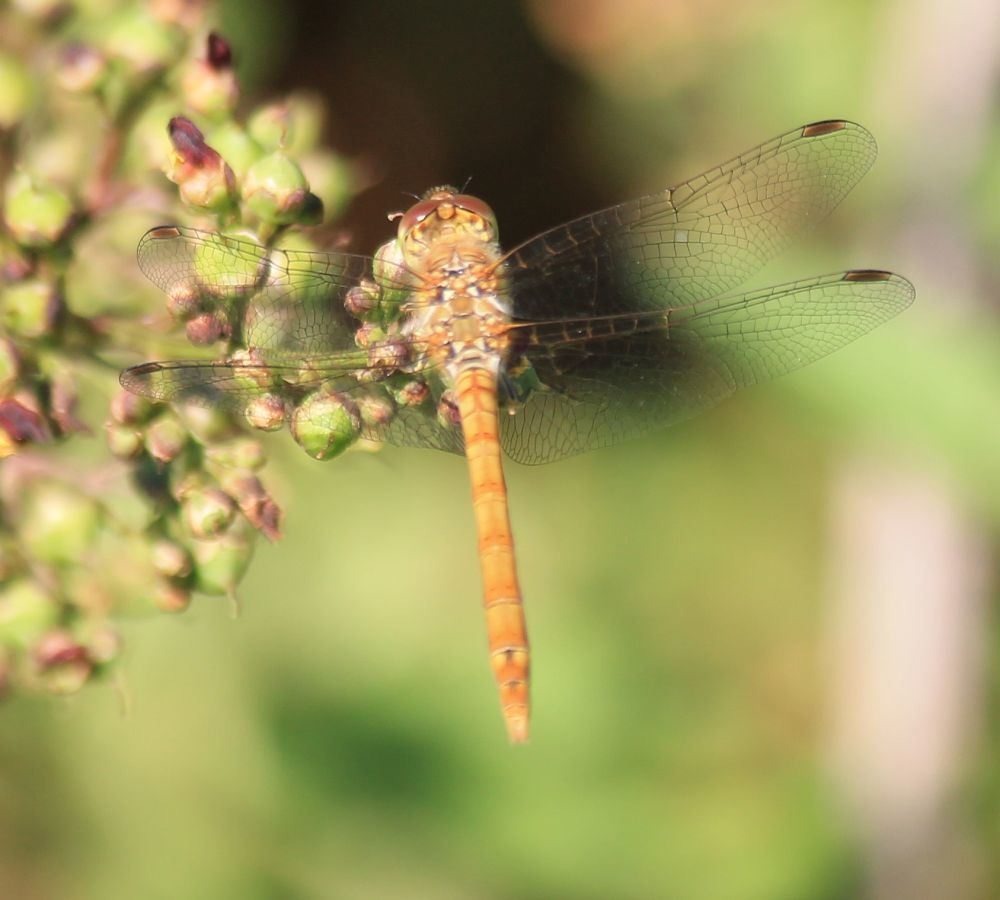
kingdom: Animalia
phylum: Arthropoda
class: Insecta
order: Odonata
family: Libellulidae
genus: Sympetrum
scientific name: Sympetrum striolatum
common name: Common darter
